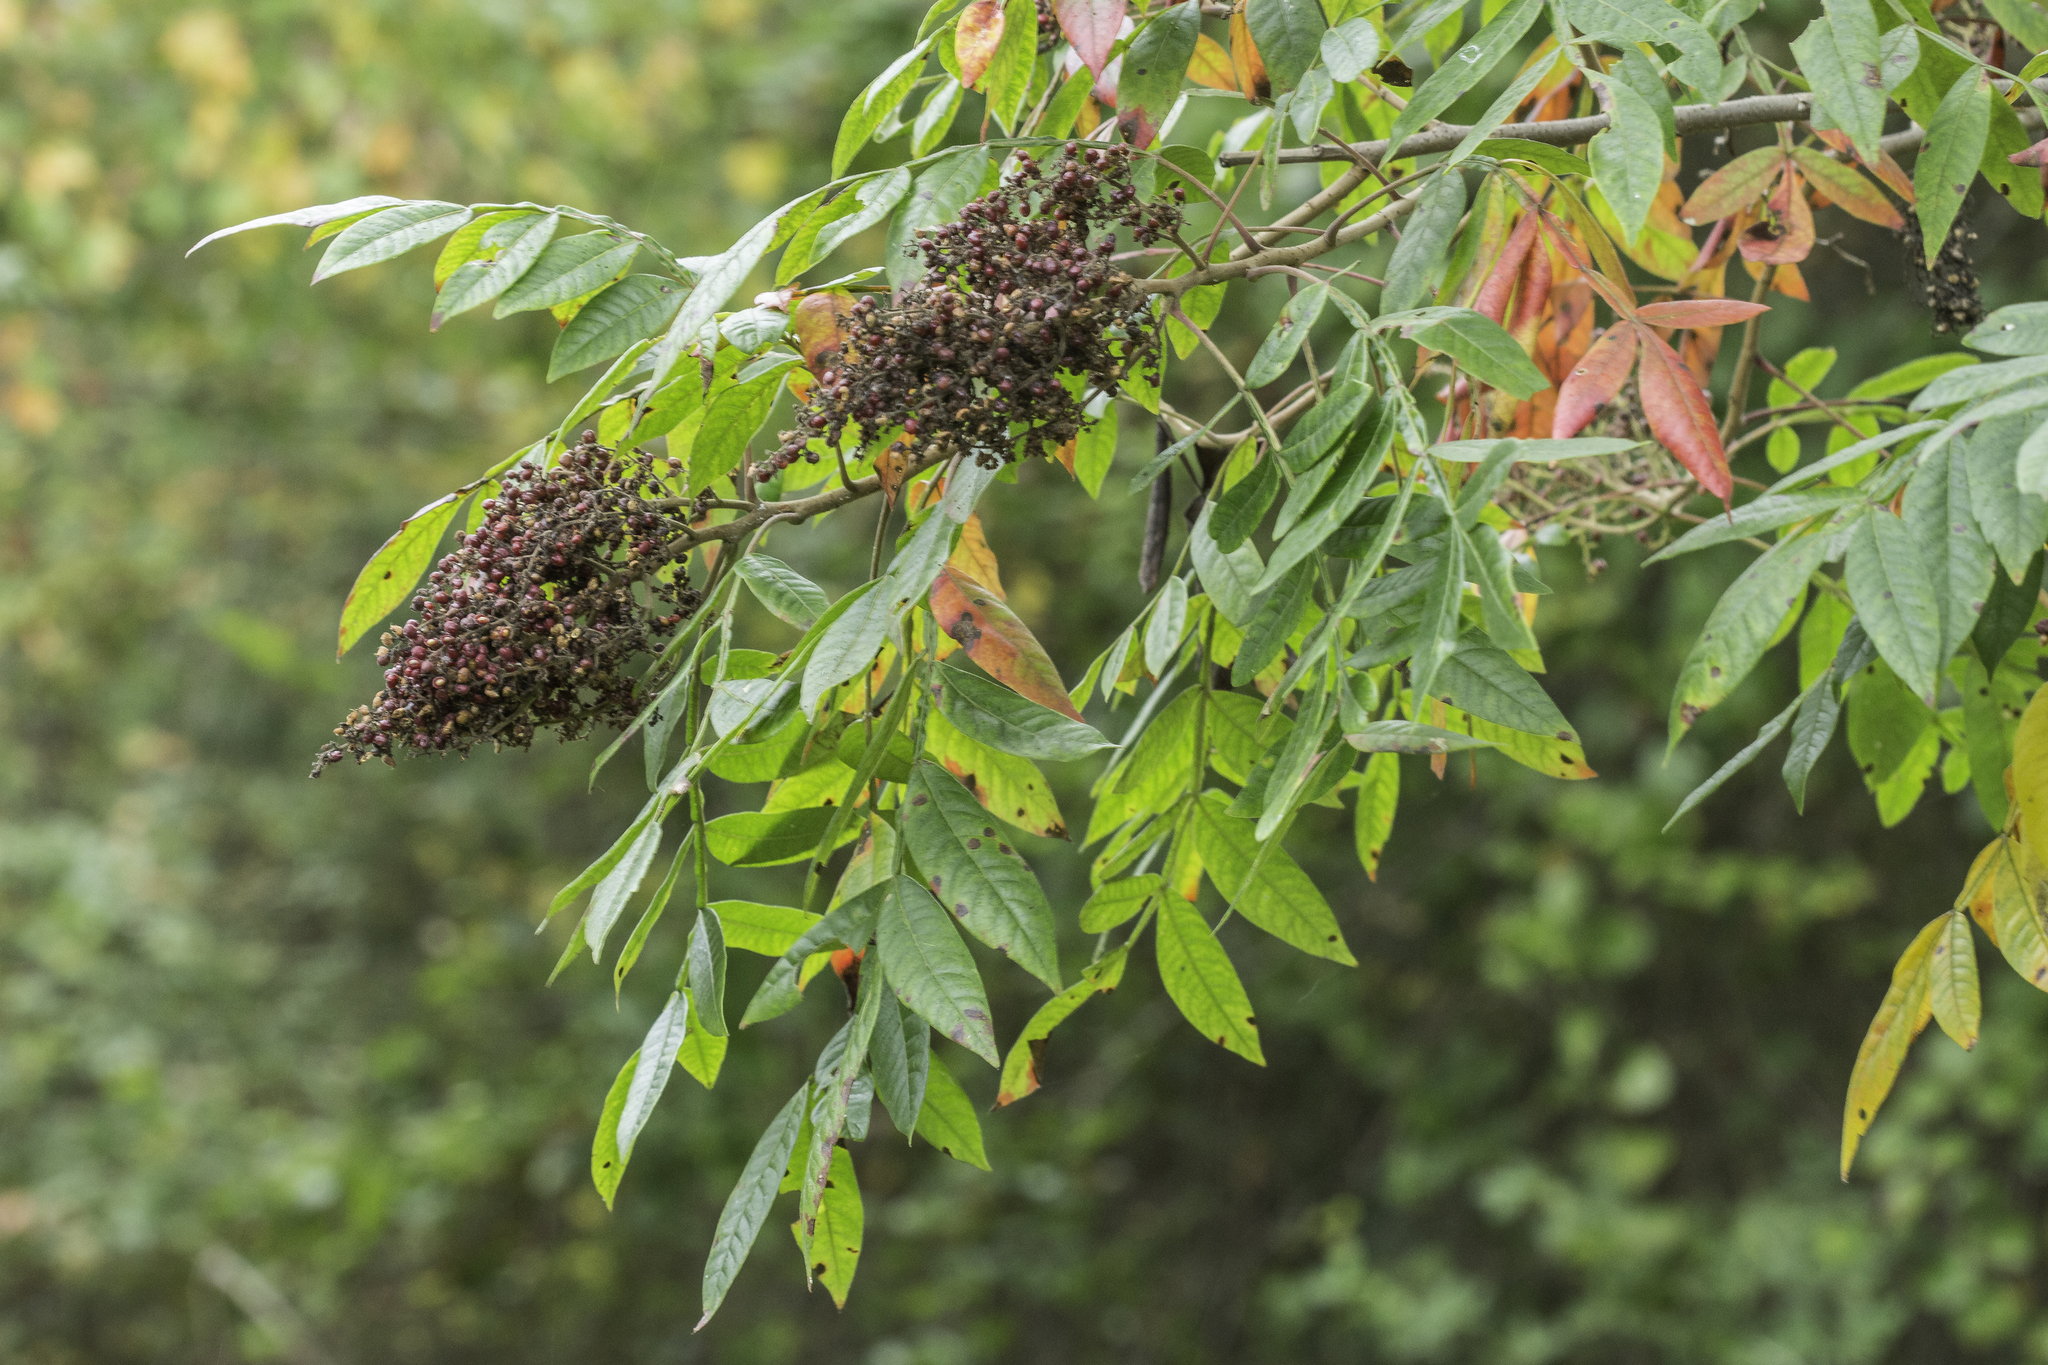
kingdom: Plantae
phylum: Tracheophyta
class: Magnoliopsida
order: Sapindales
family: Anacardiaceae
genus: Rhus
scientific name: Rhus copallina
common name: Shining sumac
